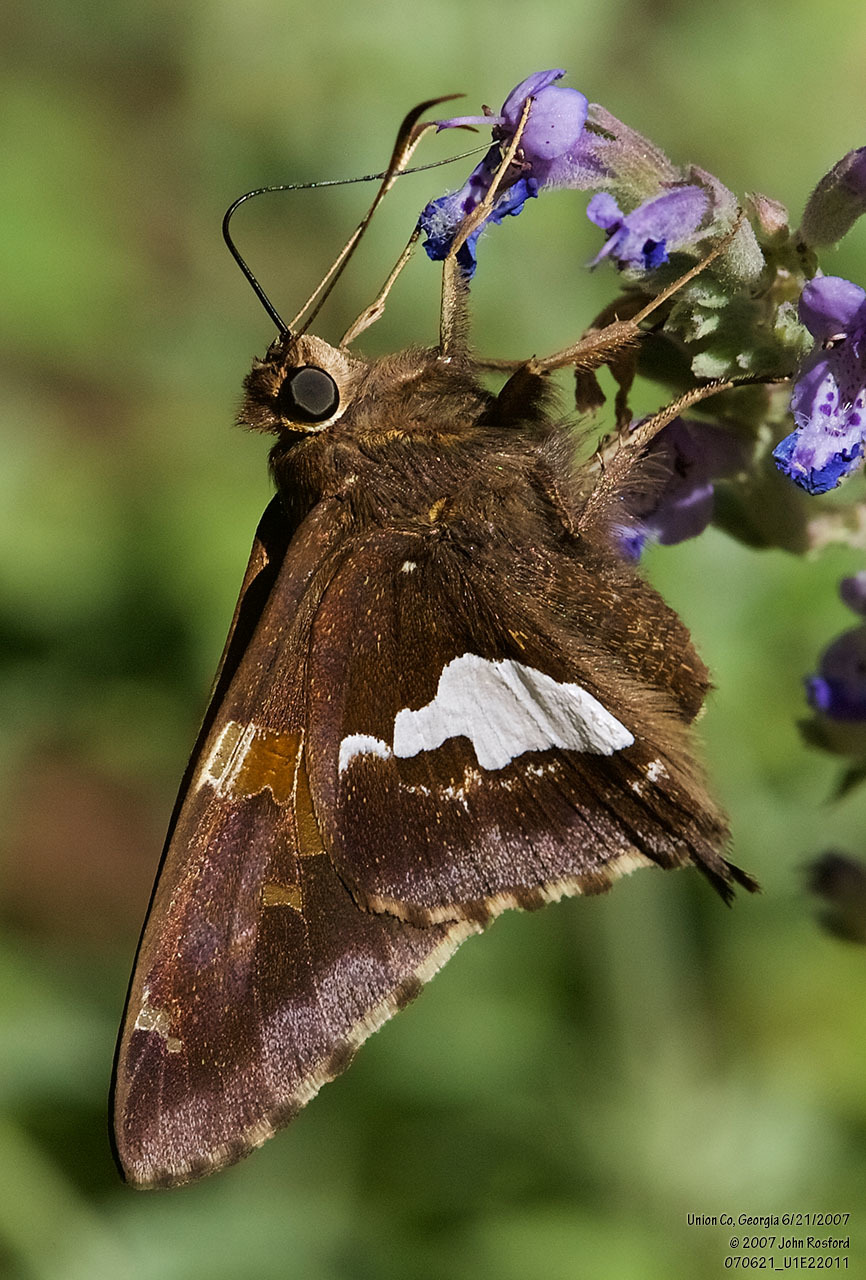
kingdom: Animalia
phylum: Arthropoda
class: Insecta
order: Lepidoptera
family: Hesperiidae
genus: Epargyreus
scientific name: Epargyreus clarus
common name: Silver-spotted skipper
